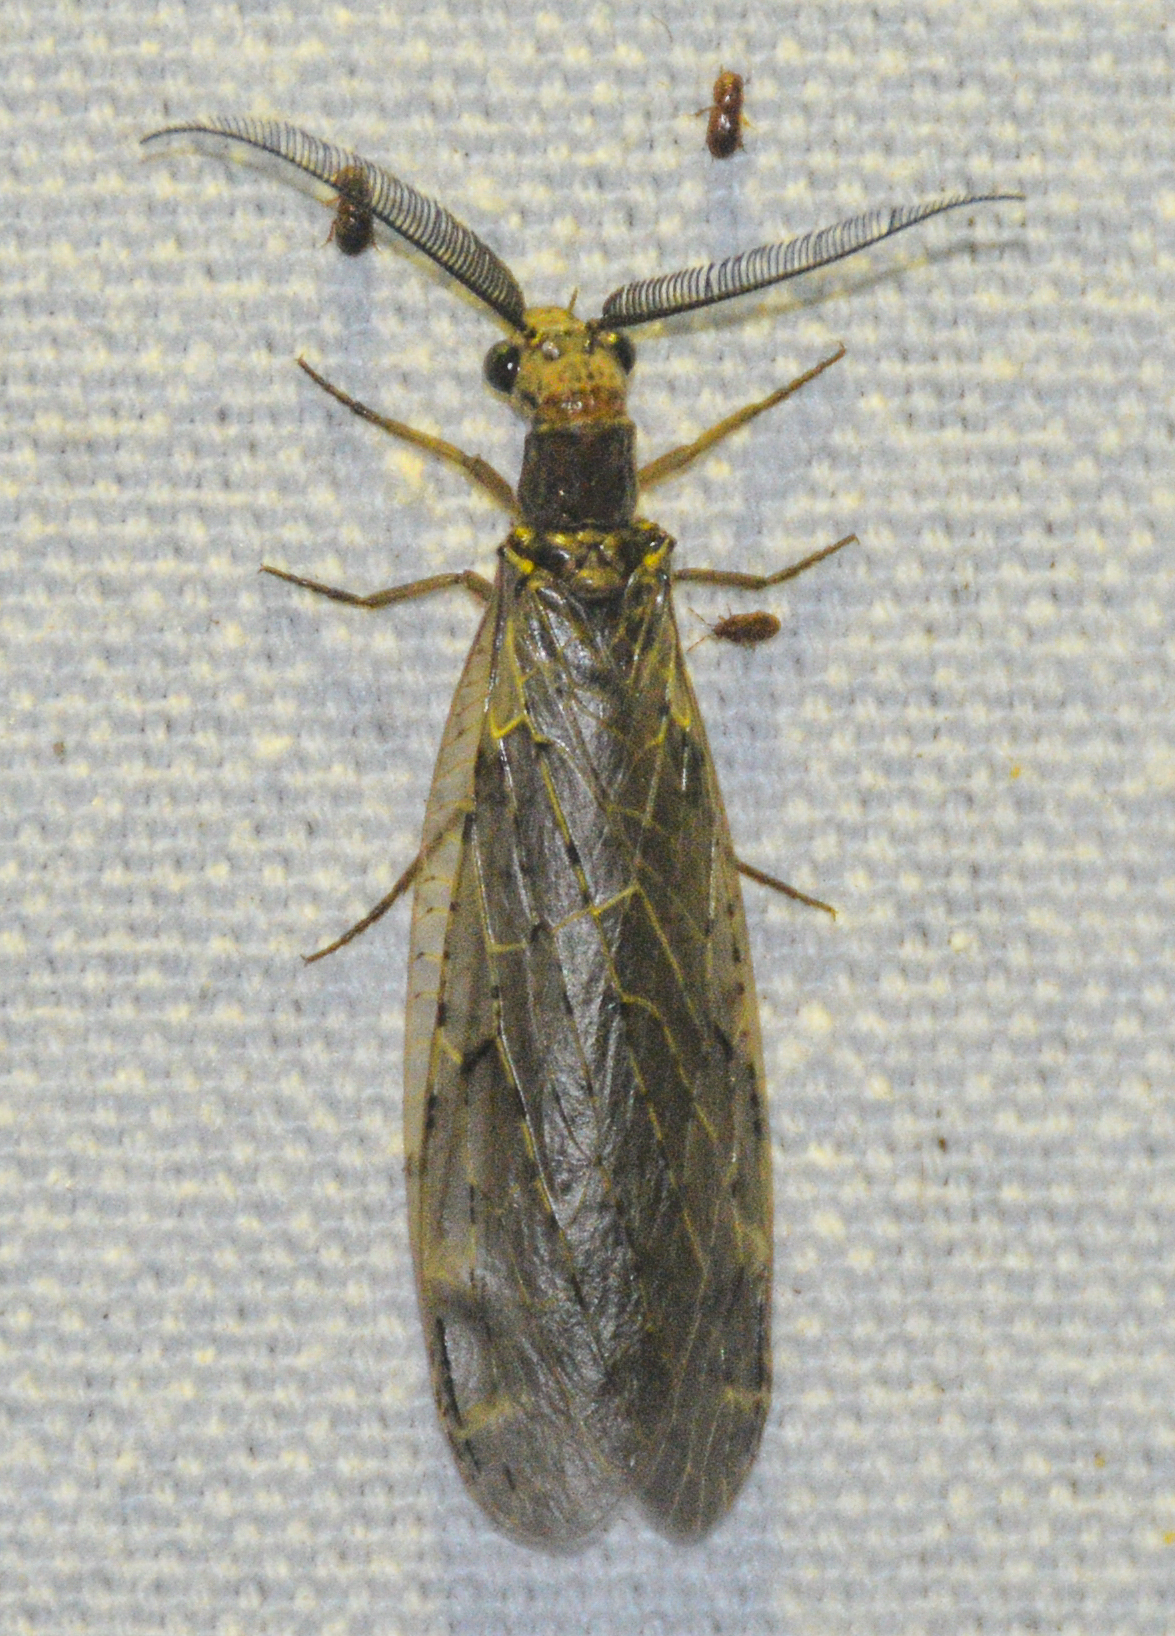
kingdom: Animalia
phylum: Arthropoda
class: Insecta
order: Megaloptera
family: Corydalidae
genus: Chauliodes
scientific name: Chauliodes rastricornis
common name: Spring fishfly
